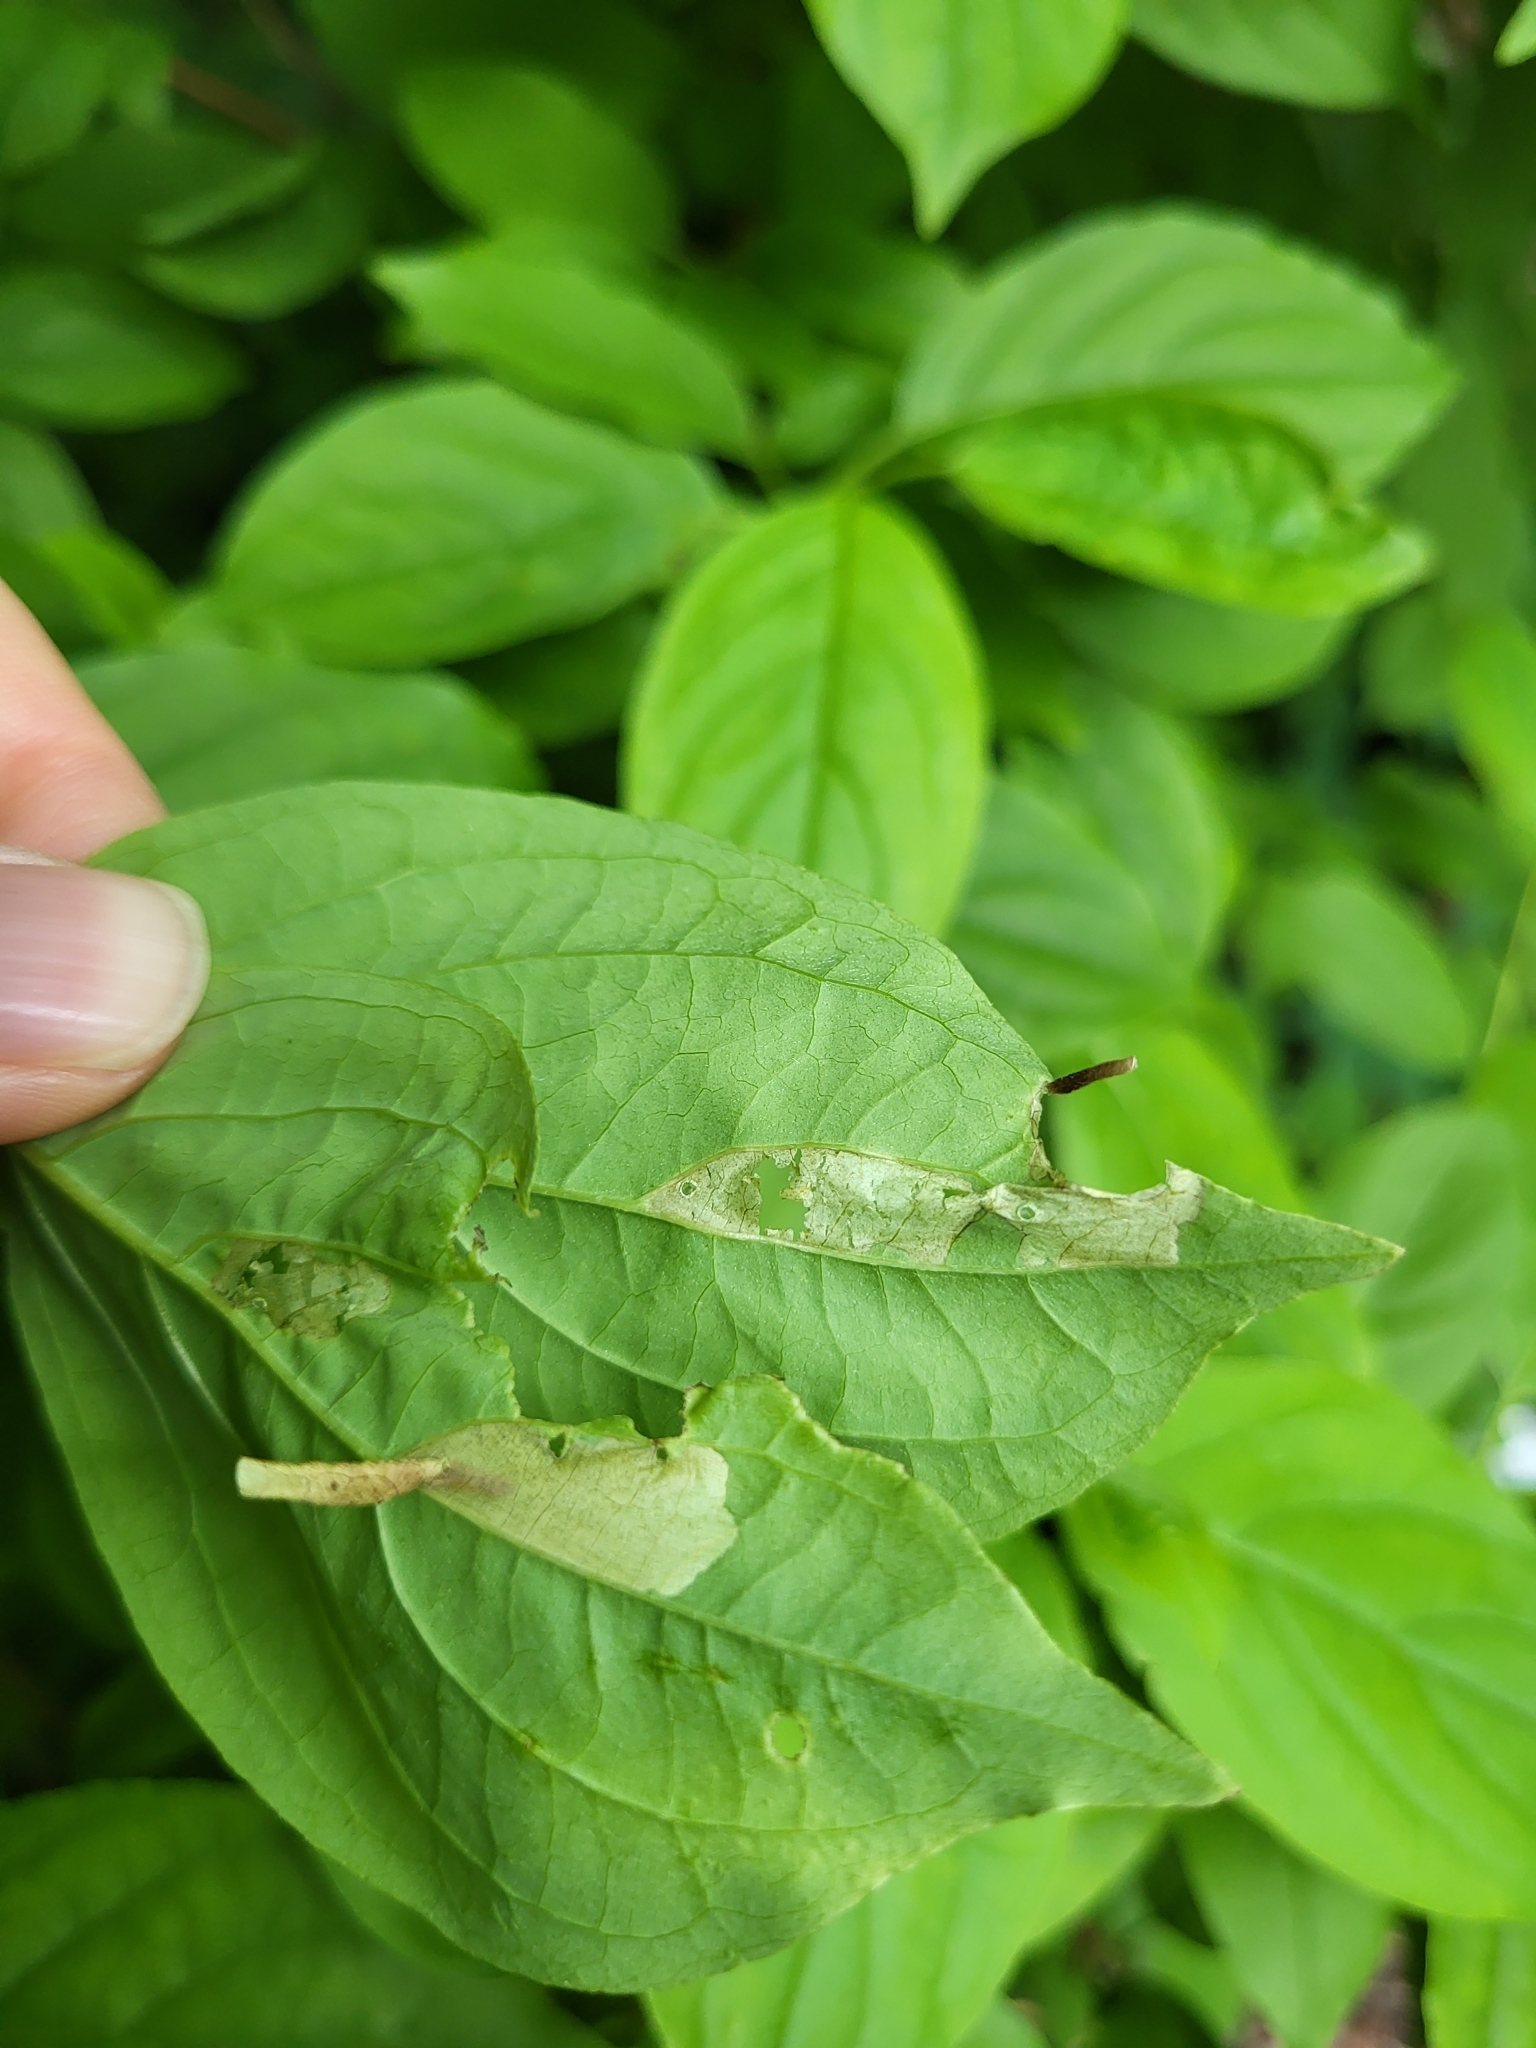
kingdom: Animalia
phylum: Arthropoda
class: Insecta
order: Lepidoptera
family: Coleophoridae
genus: Coleophora
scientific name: Coleophora cornella
